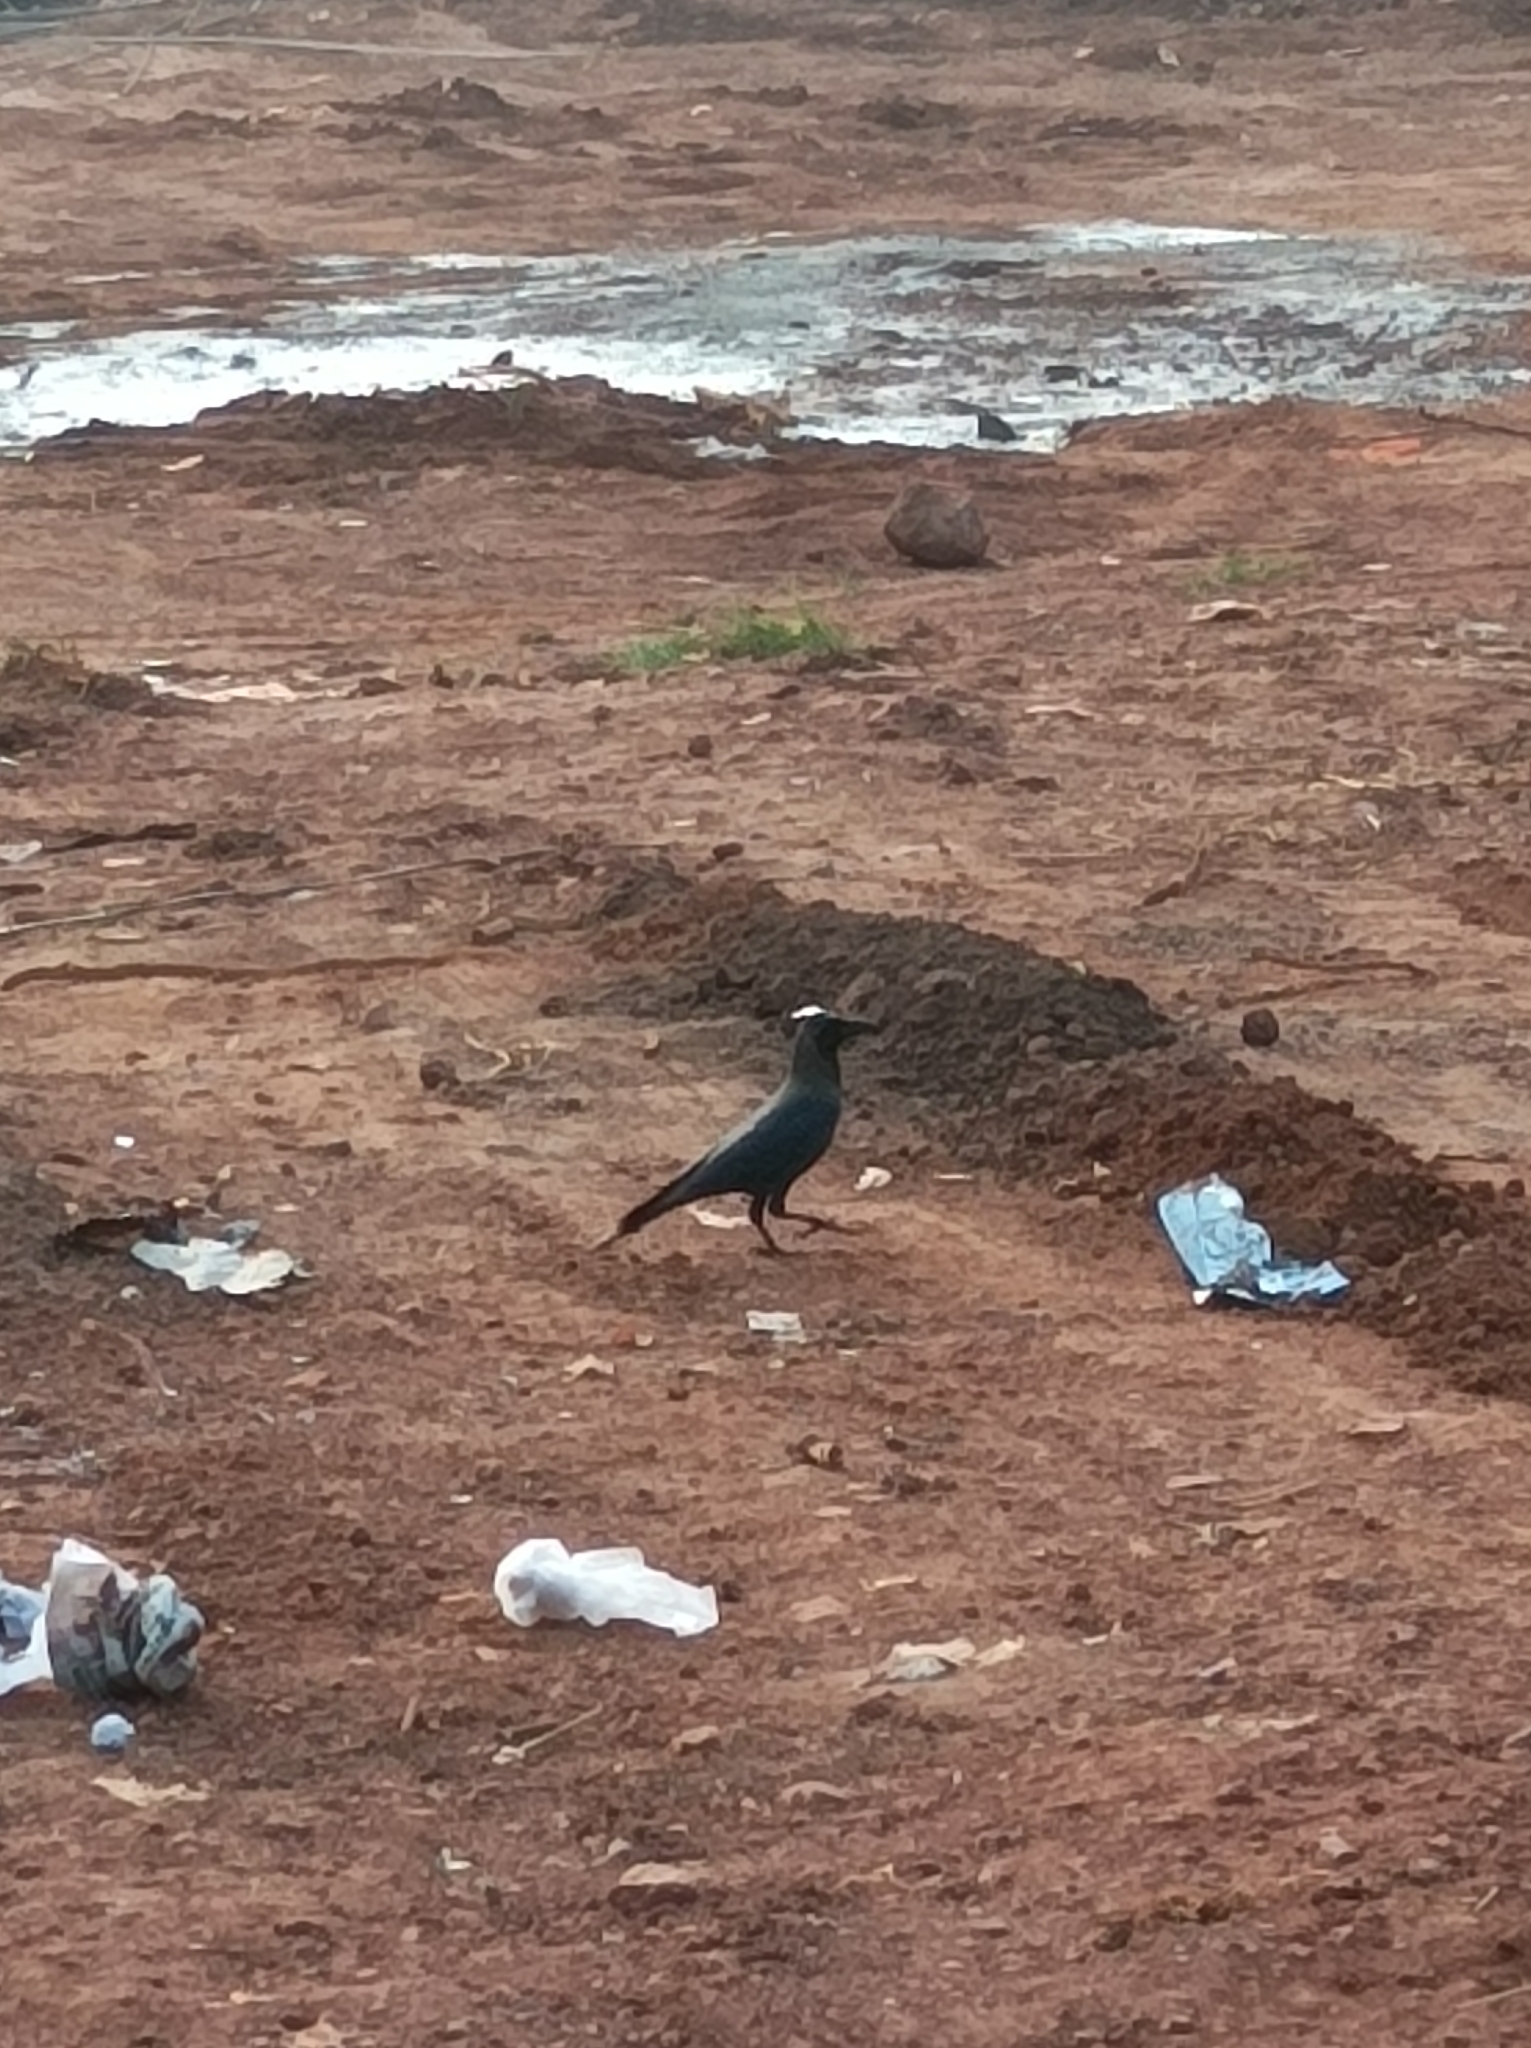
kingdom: Animalia
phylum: Chordata
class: Aves
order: Passeriformes
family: Corvidae
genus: Corvus
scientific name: Corvus splendens
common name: House crow
